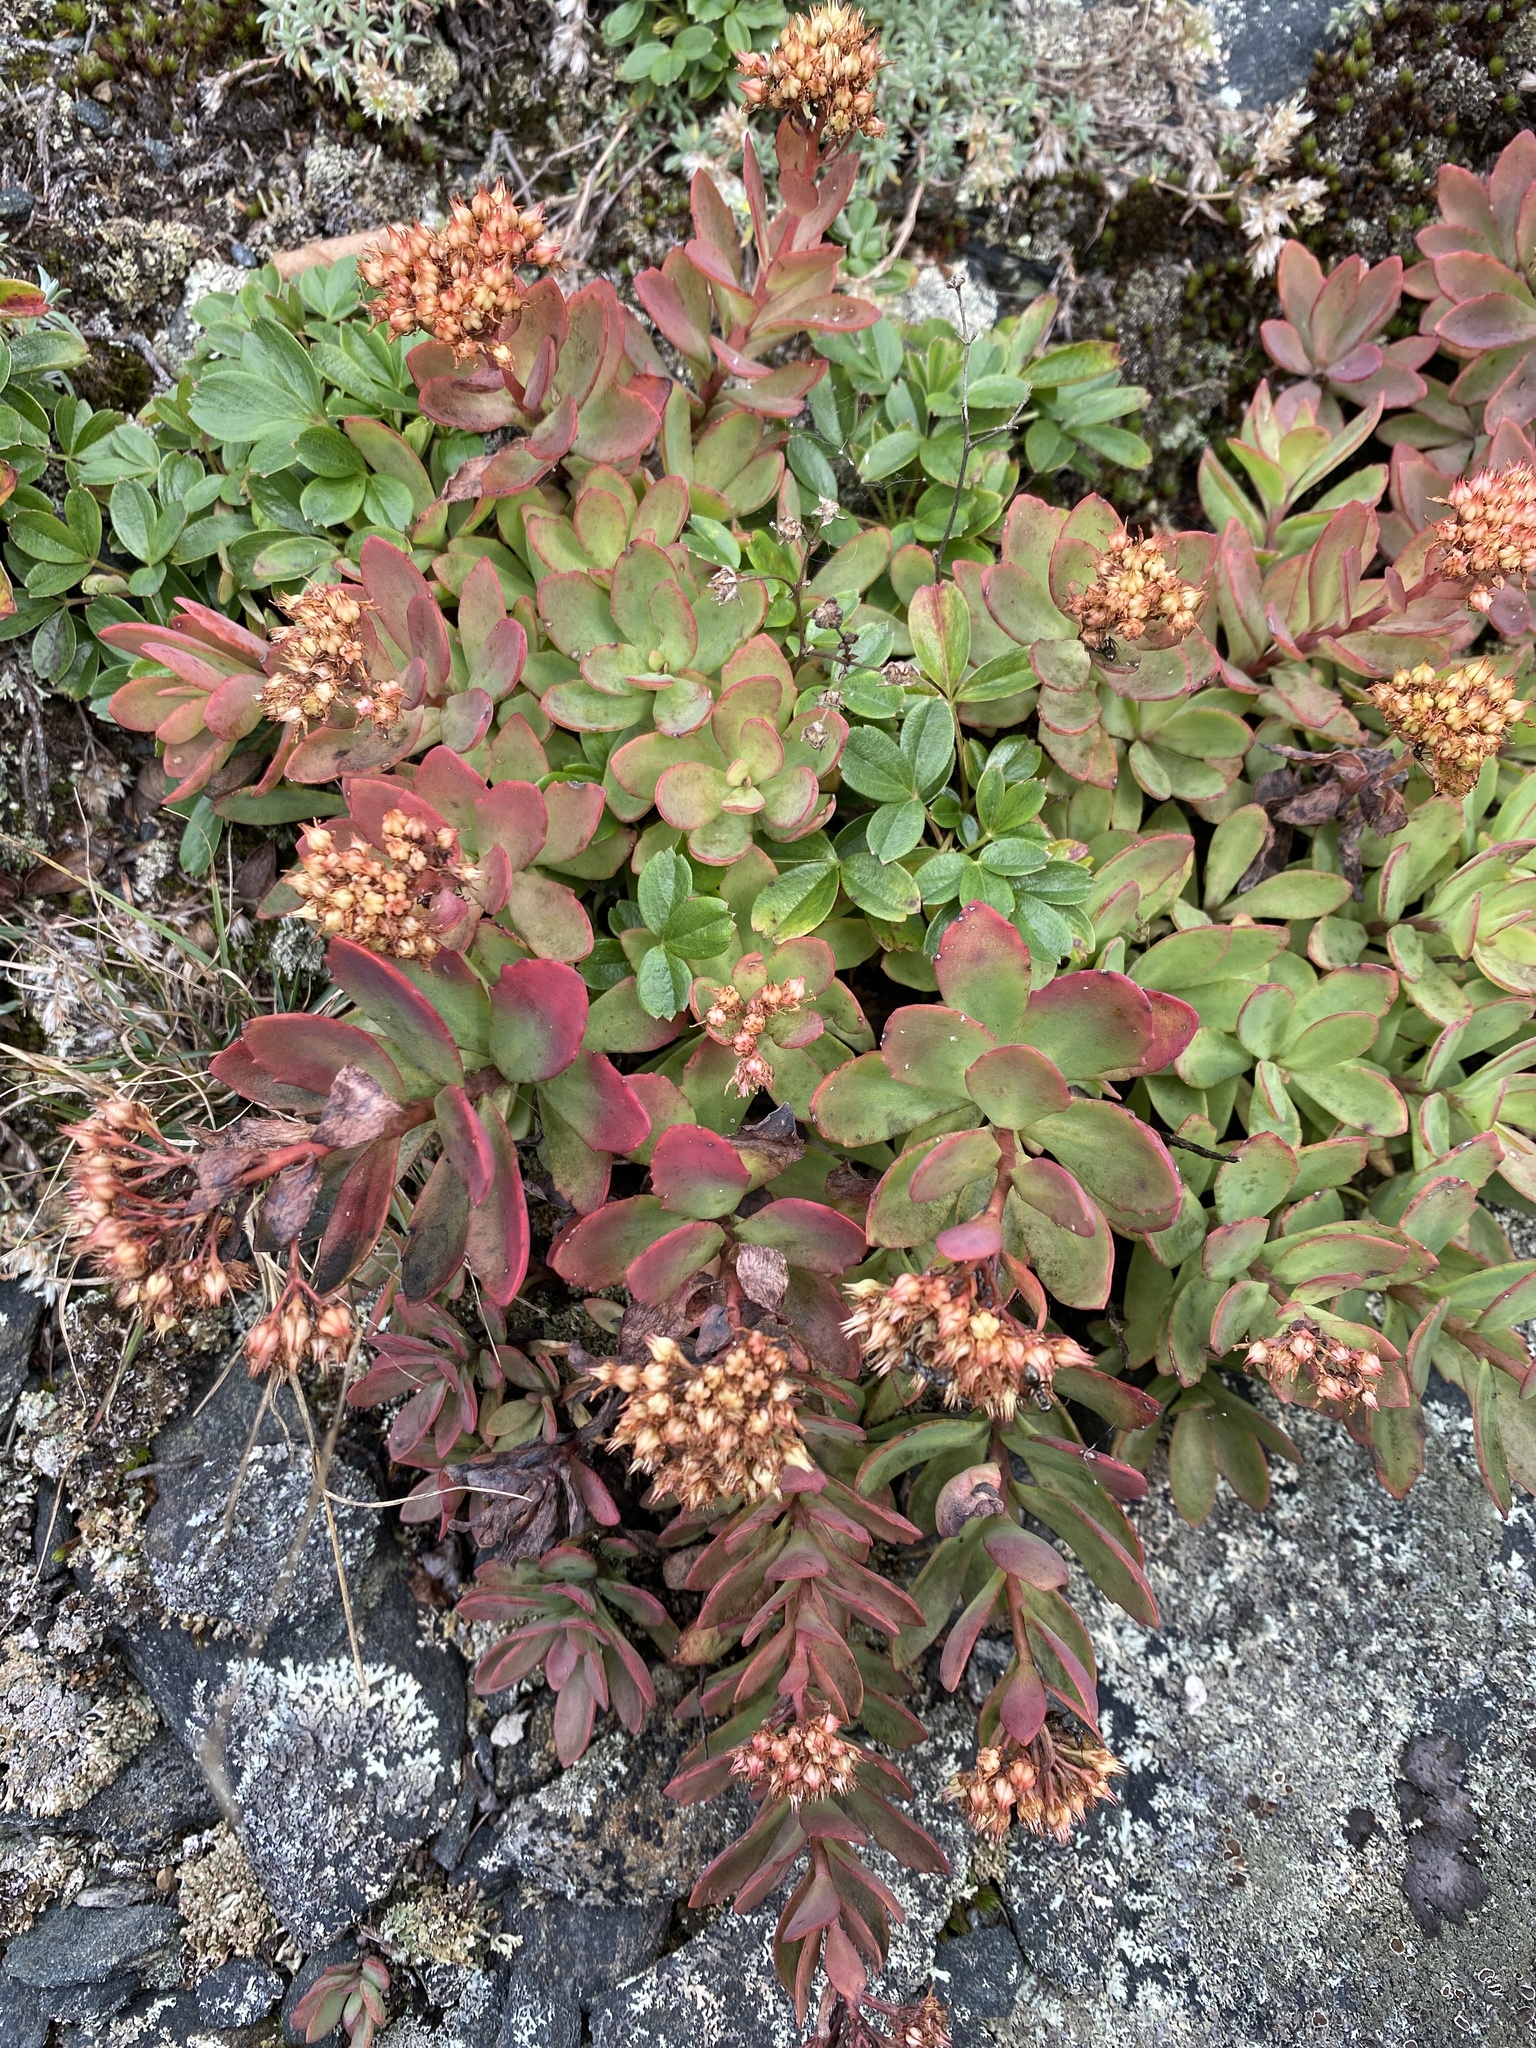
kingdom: Plantae
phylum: Tracheophyta
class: Magnoliopsida
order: Saxifragales
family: Crassulaceae
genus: Hylotelephium
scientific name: Hylotelephium telephioides
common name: Allegheny stonecrop
